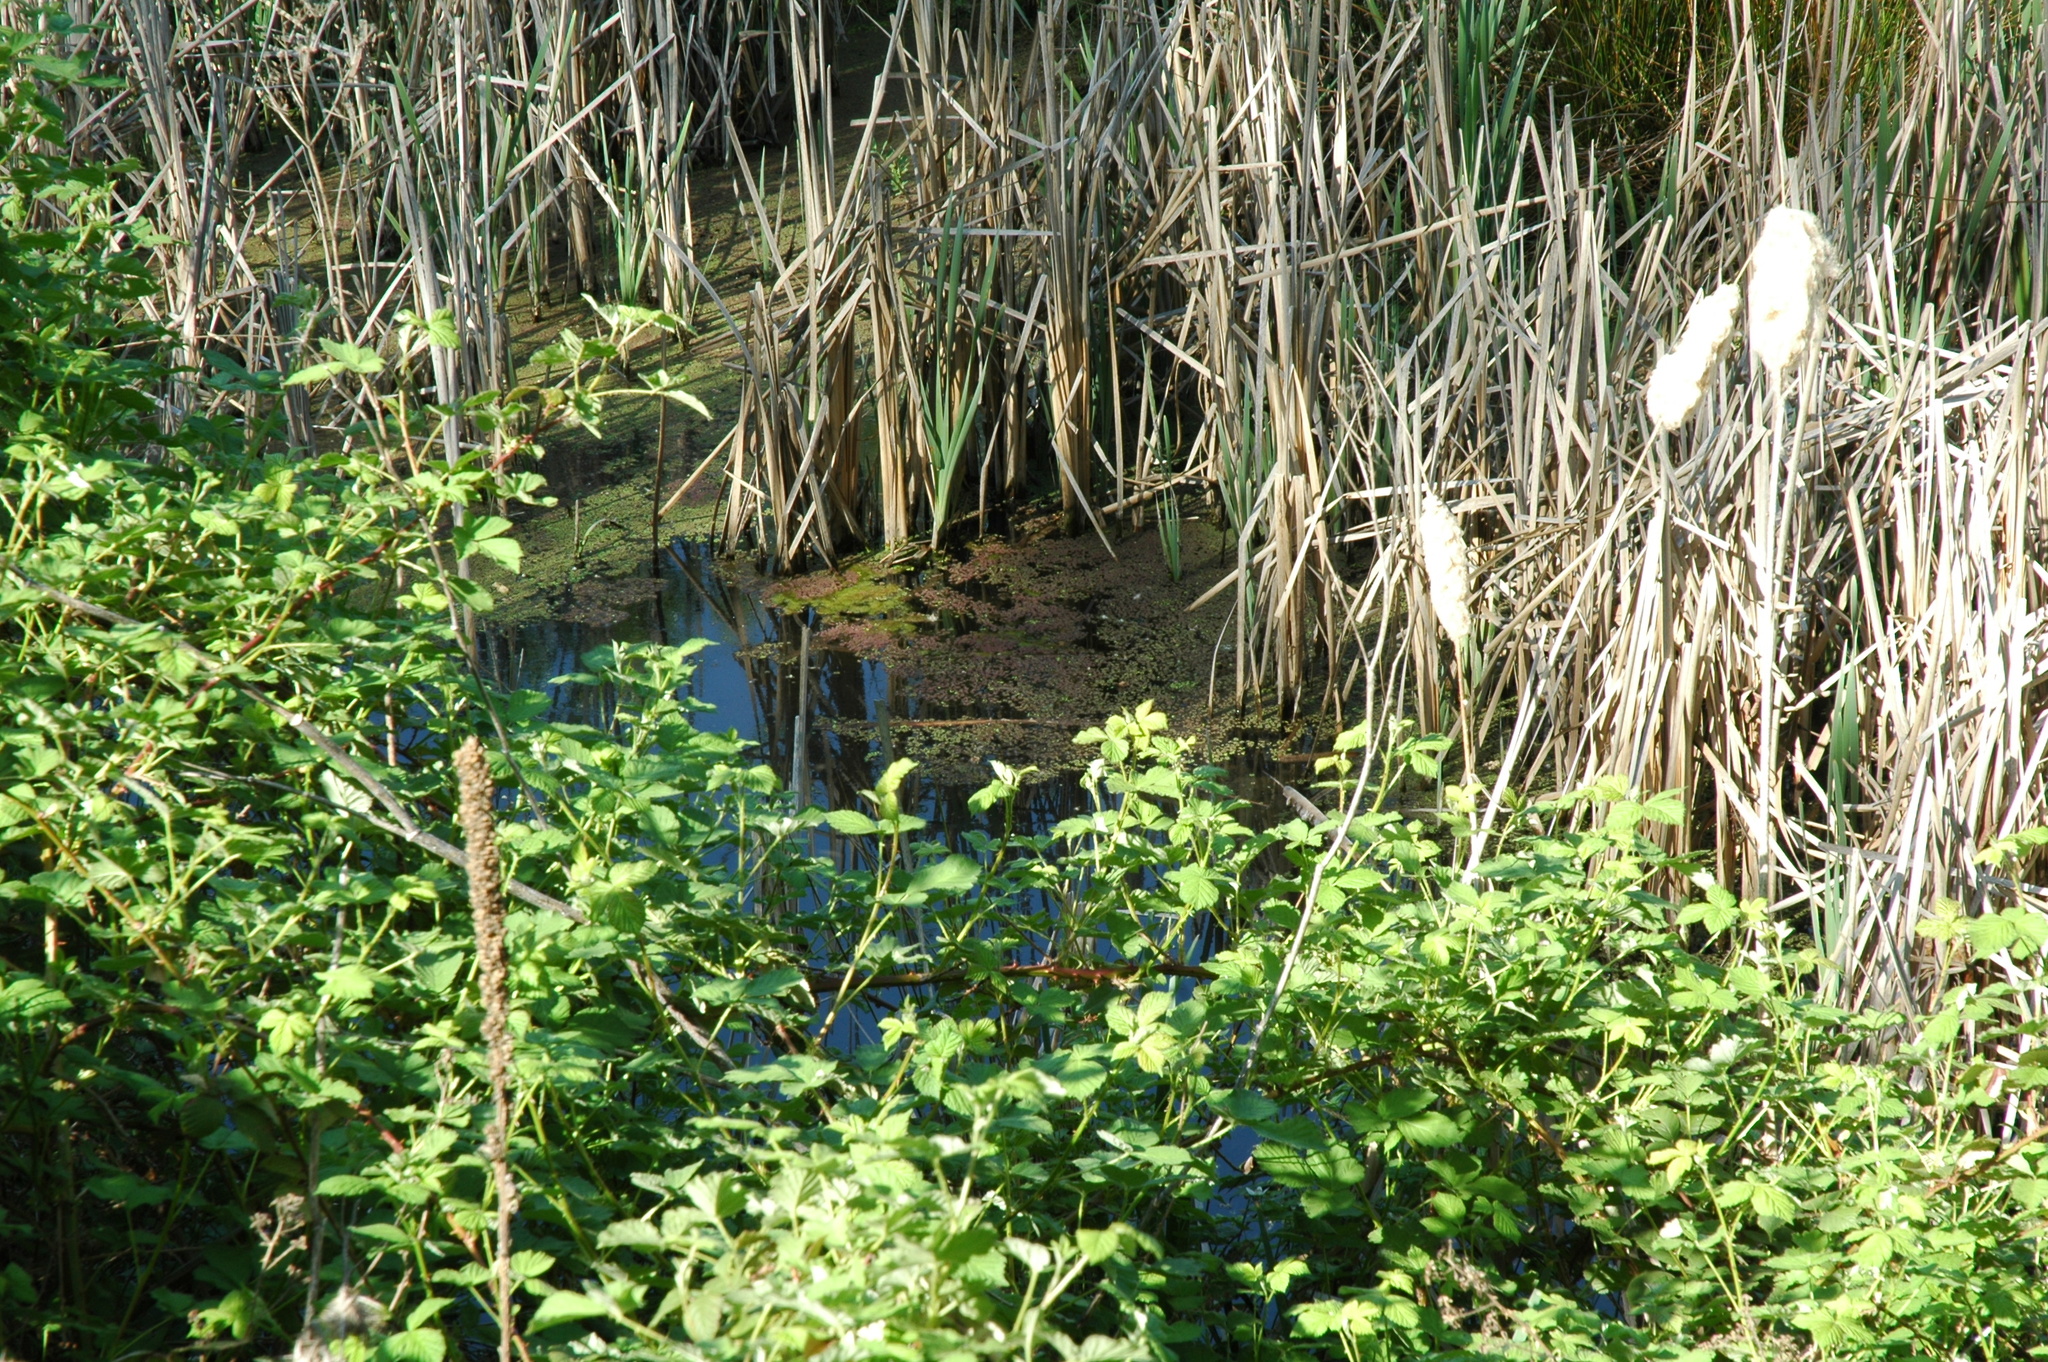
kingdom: Plantae
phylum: Tracheophyta
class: Polypodiopsida
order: Salviniales
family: Salviniaceae
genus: Azolla
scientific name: Azolla filiculoides
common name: Water fern
